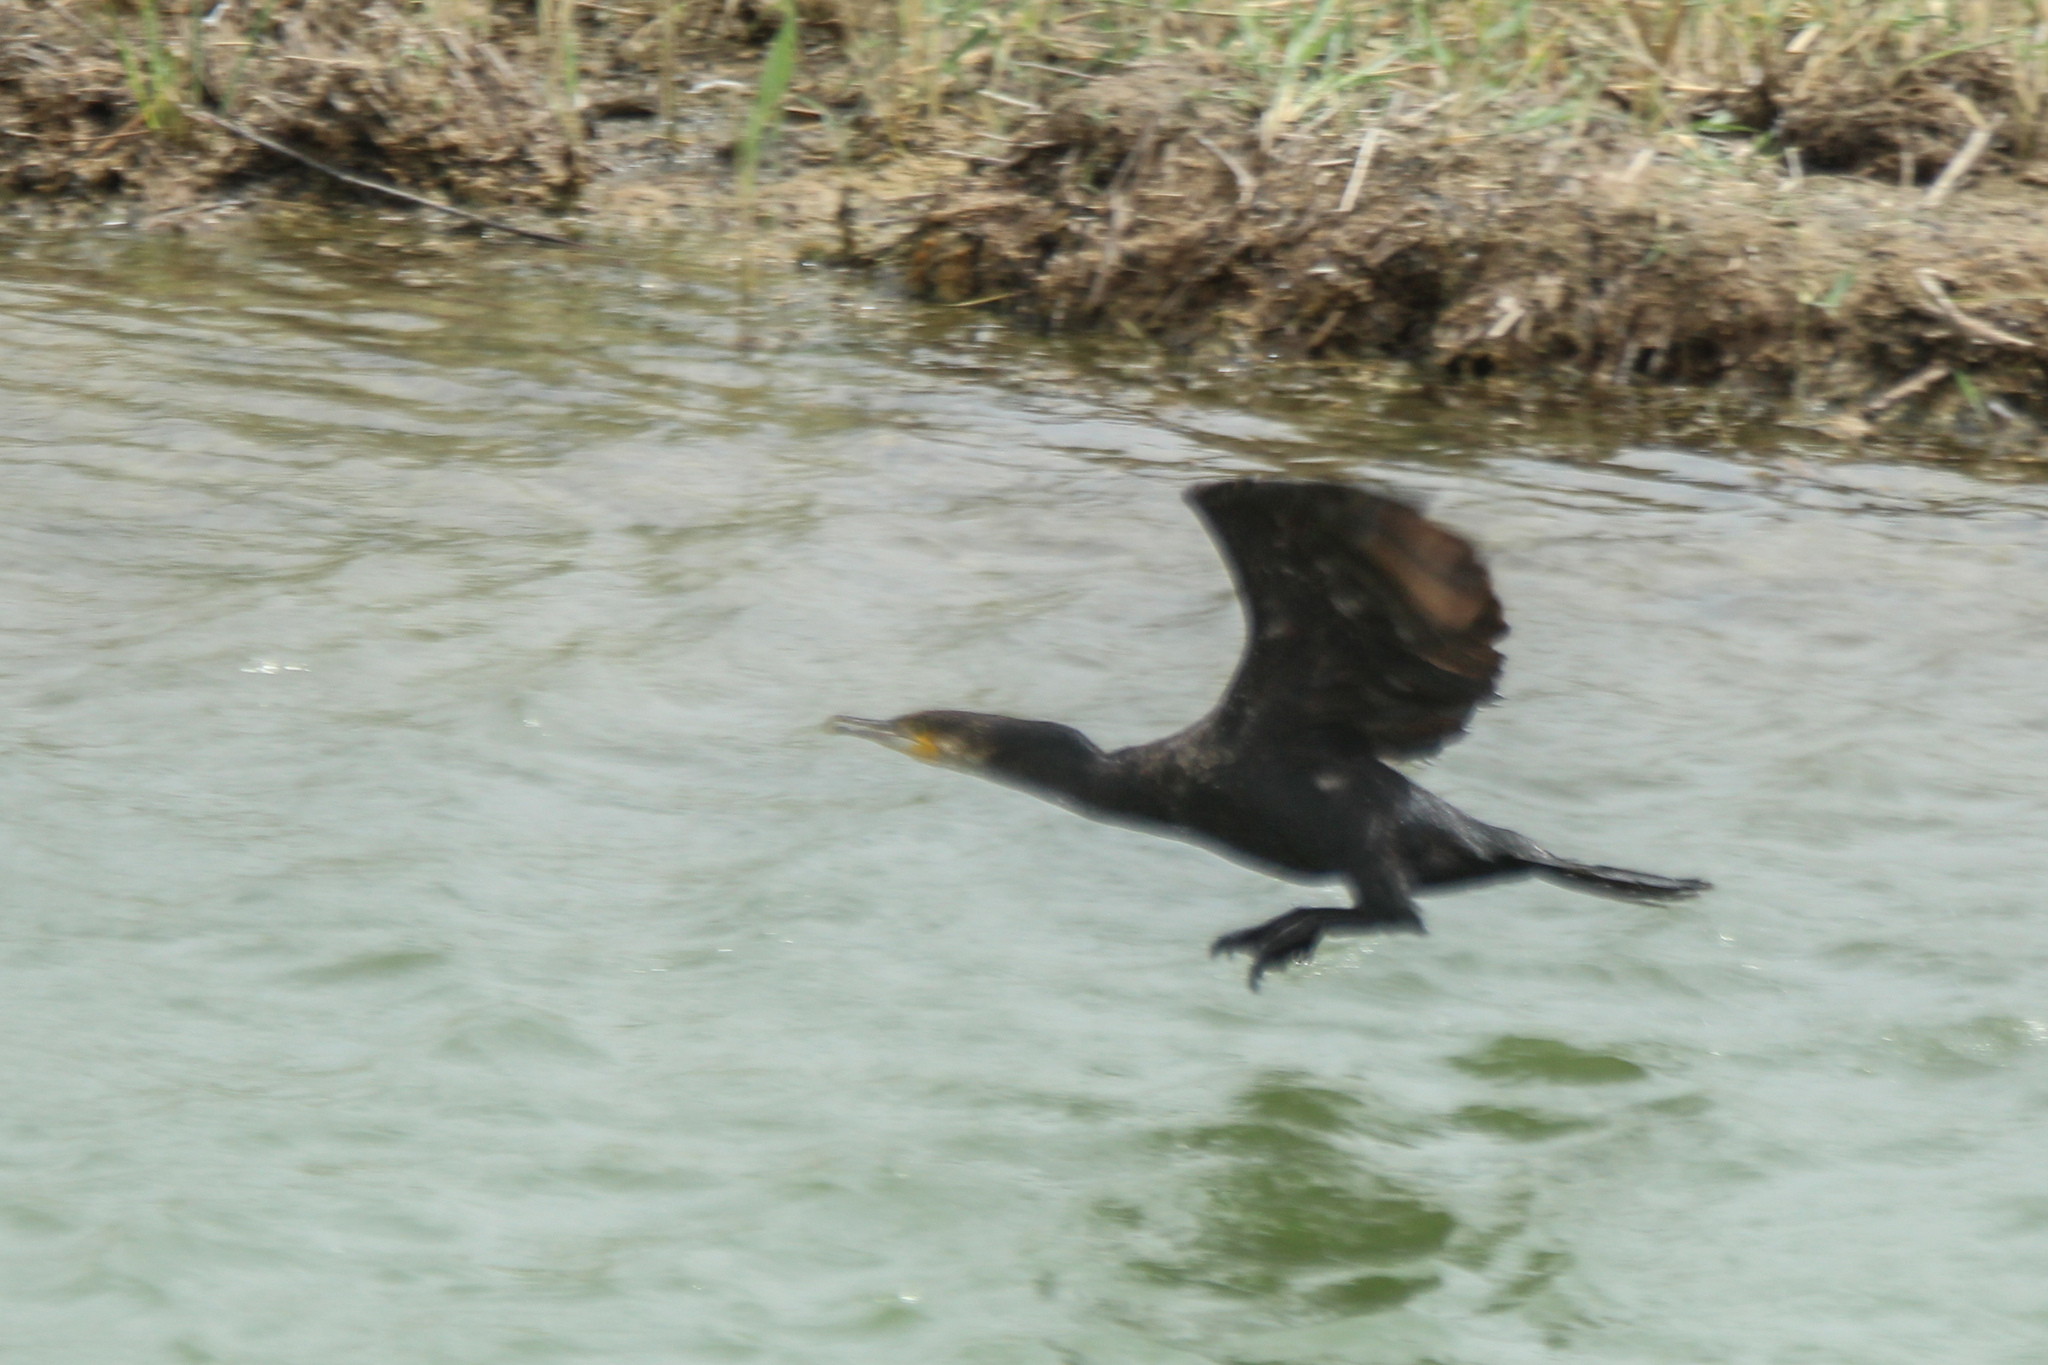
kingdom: Animalia
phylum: Chordata
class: Aves
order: Suliformes
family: Phalacrocoracidae
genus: Phalacrocorax
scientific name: Phalacrocorax carbo
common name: Great cormorant
